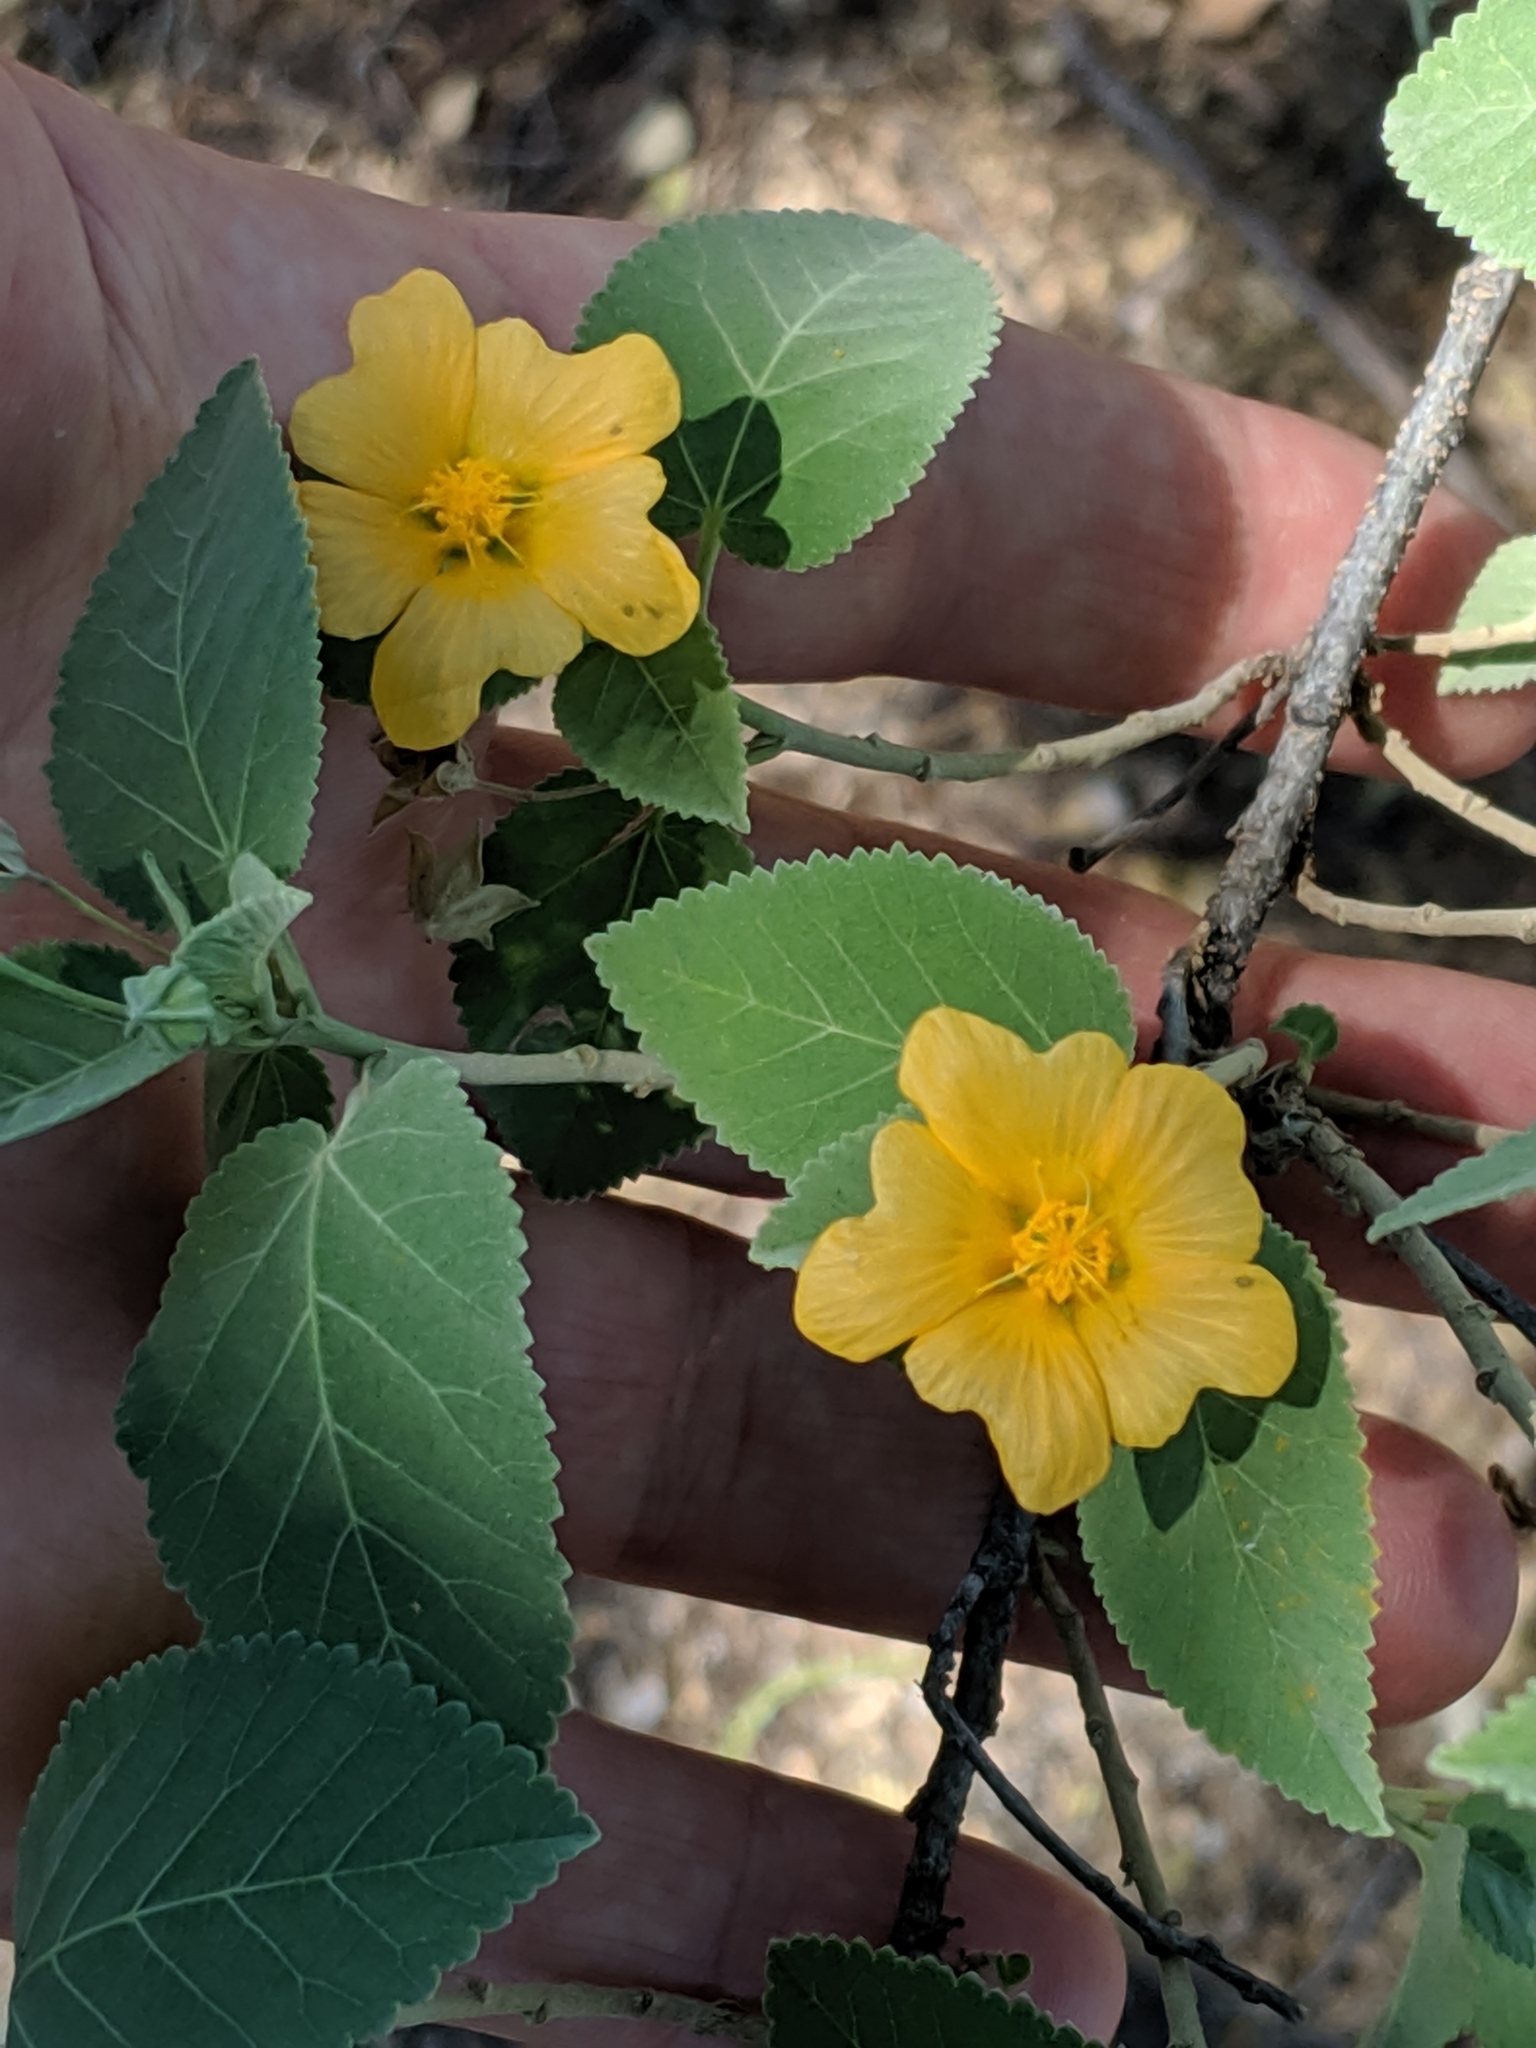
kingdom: Plantae
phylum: Tracheophyta
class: Magnoliopsida
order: Malvales
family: Malvaceae
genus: Sida
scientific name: Sida fallax
